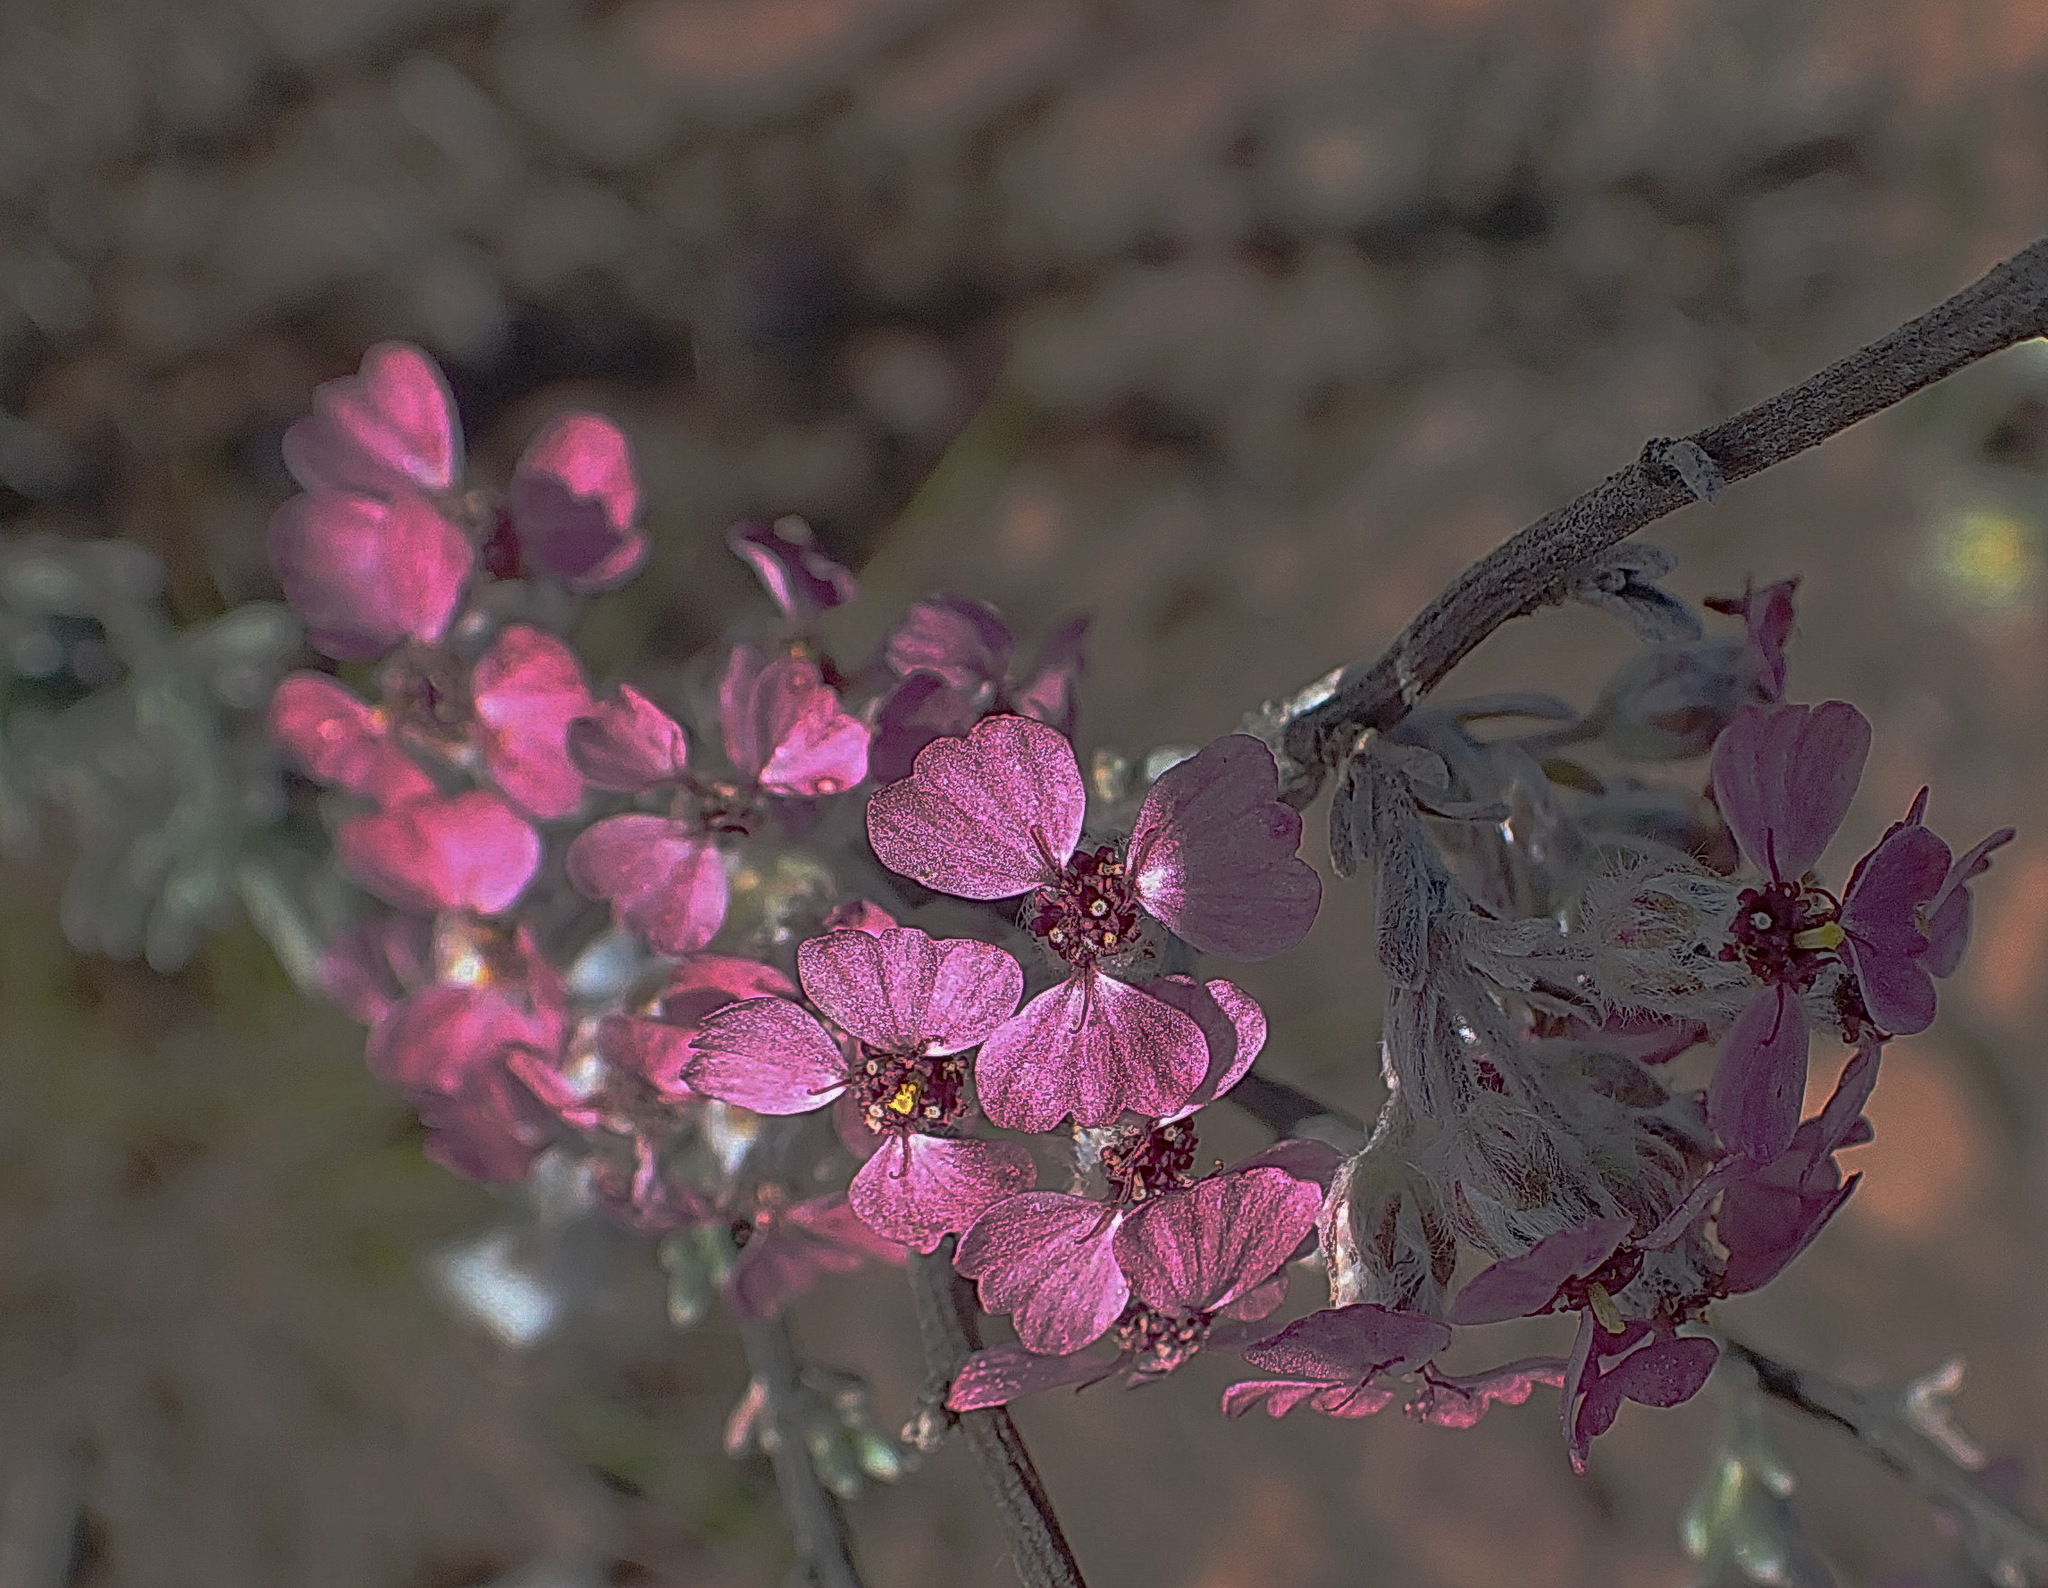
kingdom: Plantae
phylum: Tracheophyta
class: Magnoliopsida
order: Asterales
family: Asteraceae
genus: Eriocephalus
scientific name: Eriocephalus africanus
